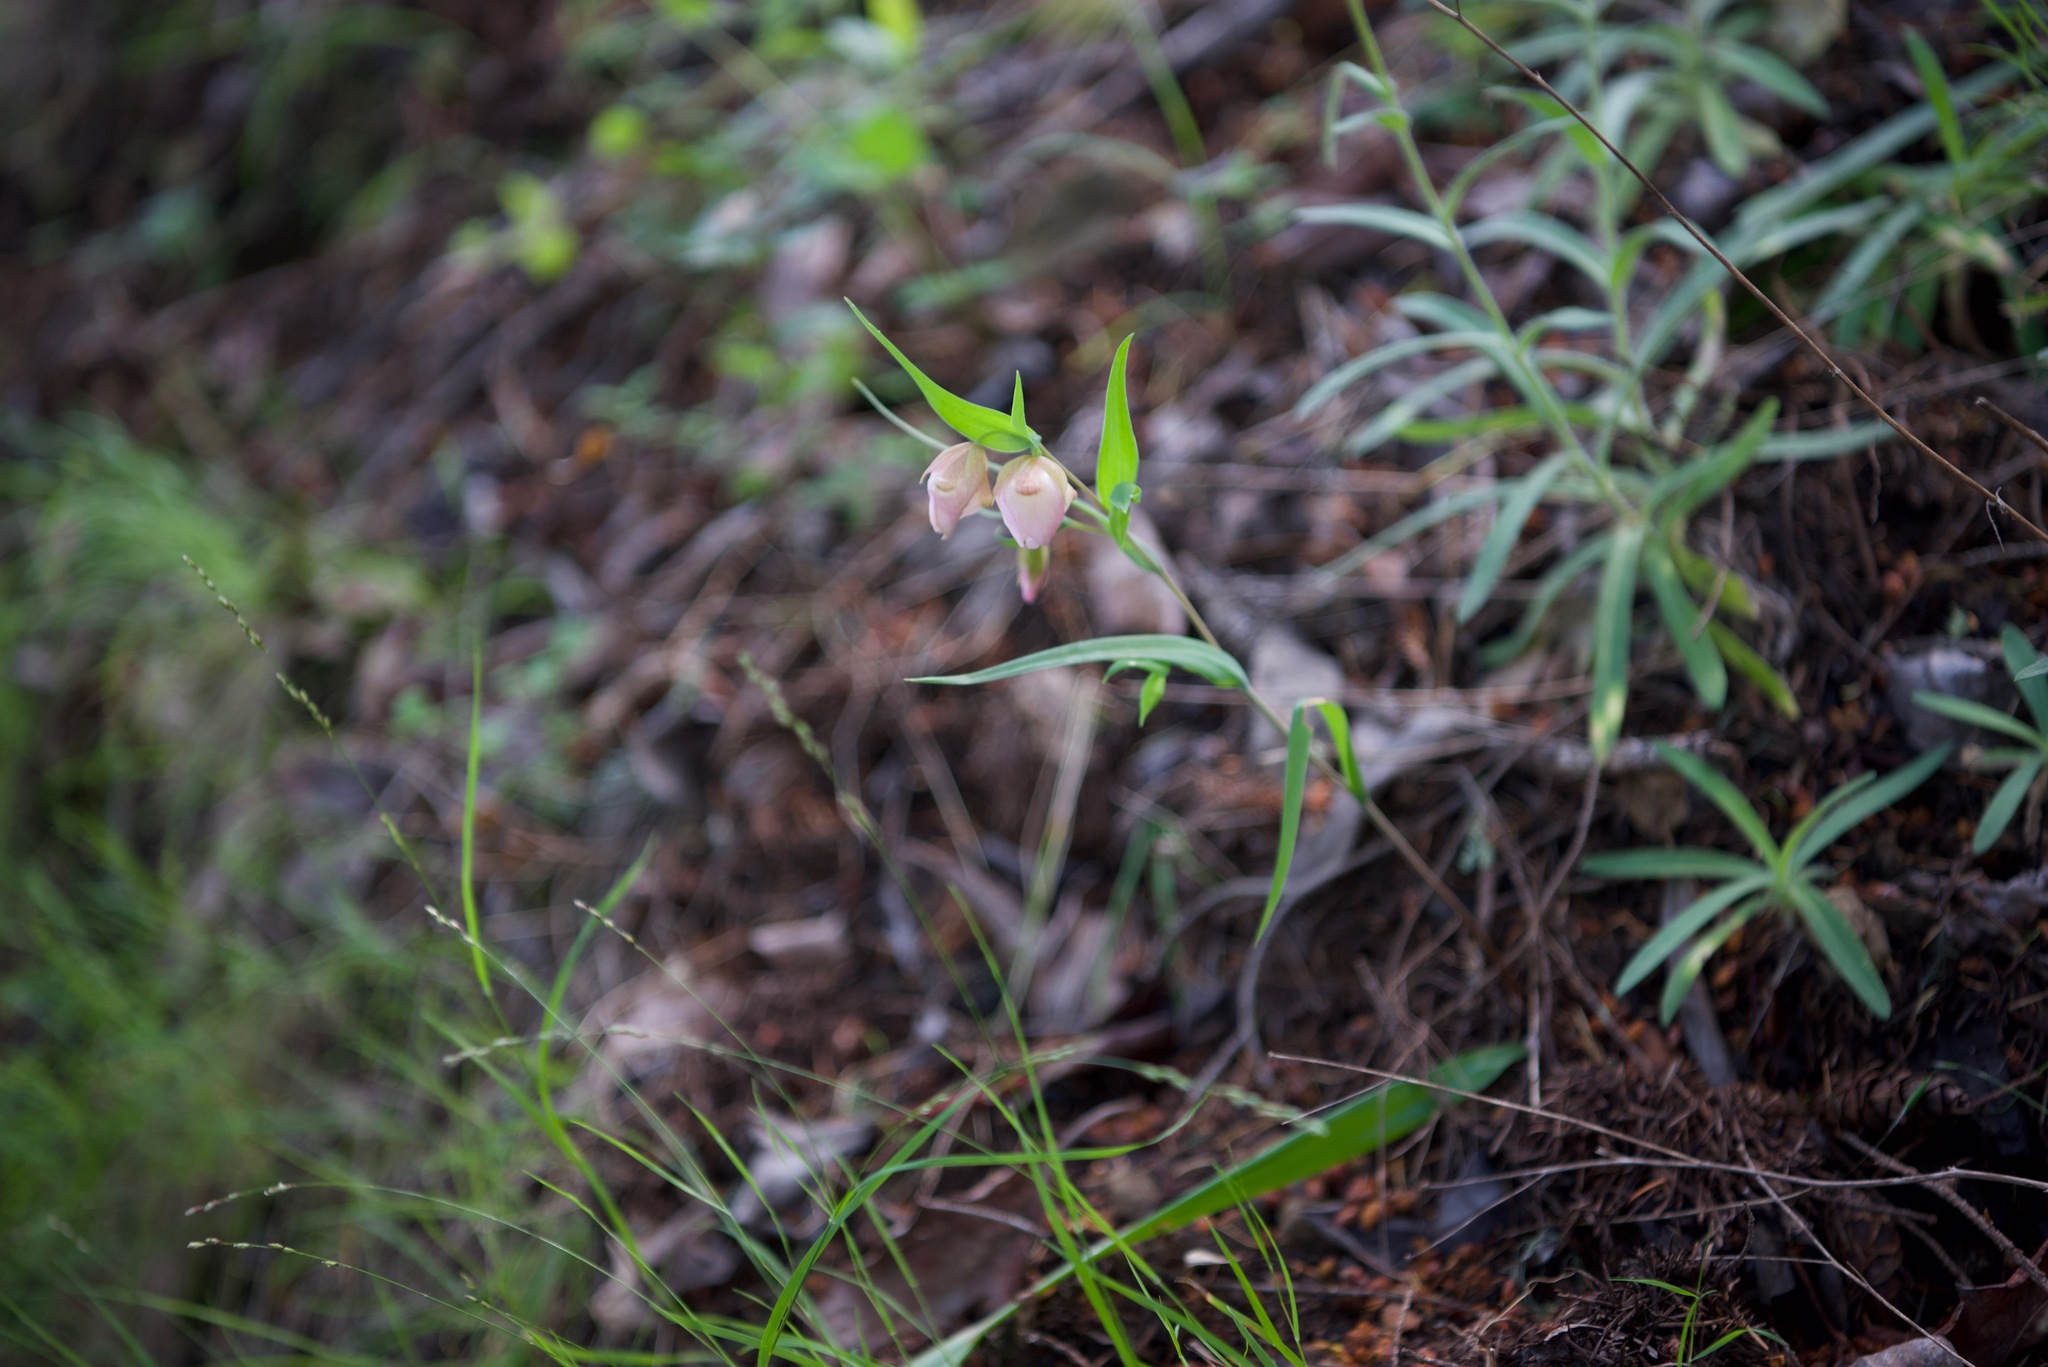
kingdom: Plantae
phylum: Tracheophyta
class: Liliopsida
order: Liliales
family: Liliaceae
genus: Calochortus
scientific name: Calochortus albus
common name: Fairy-lantern
